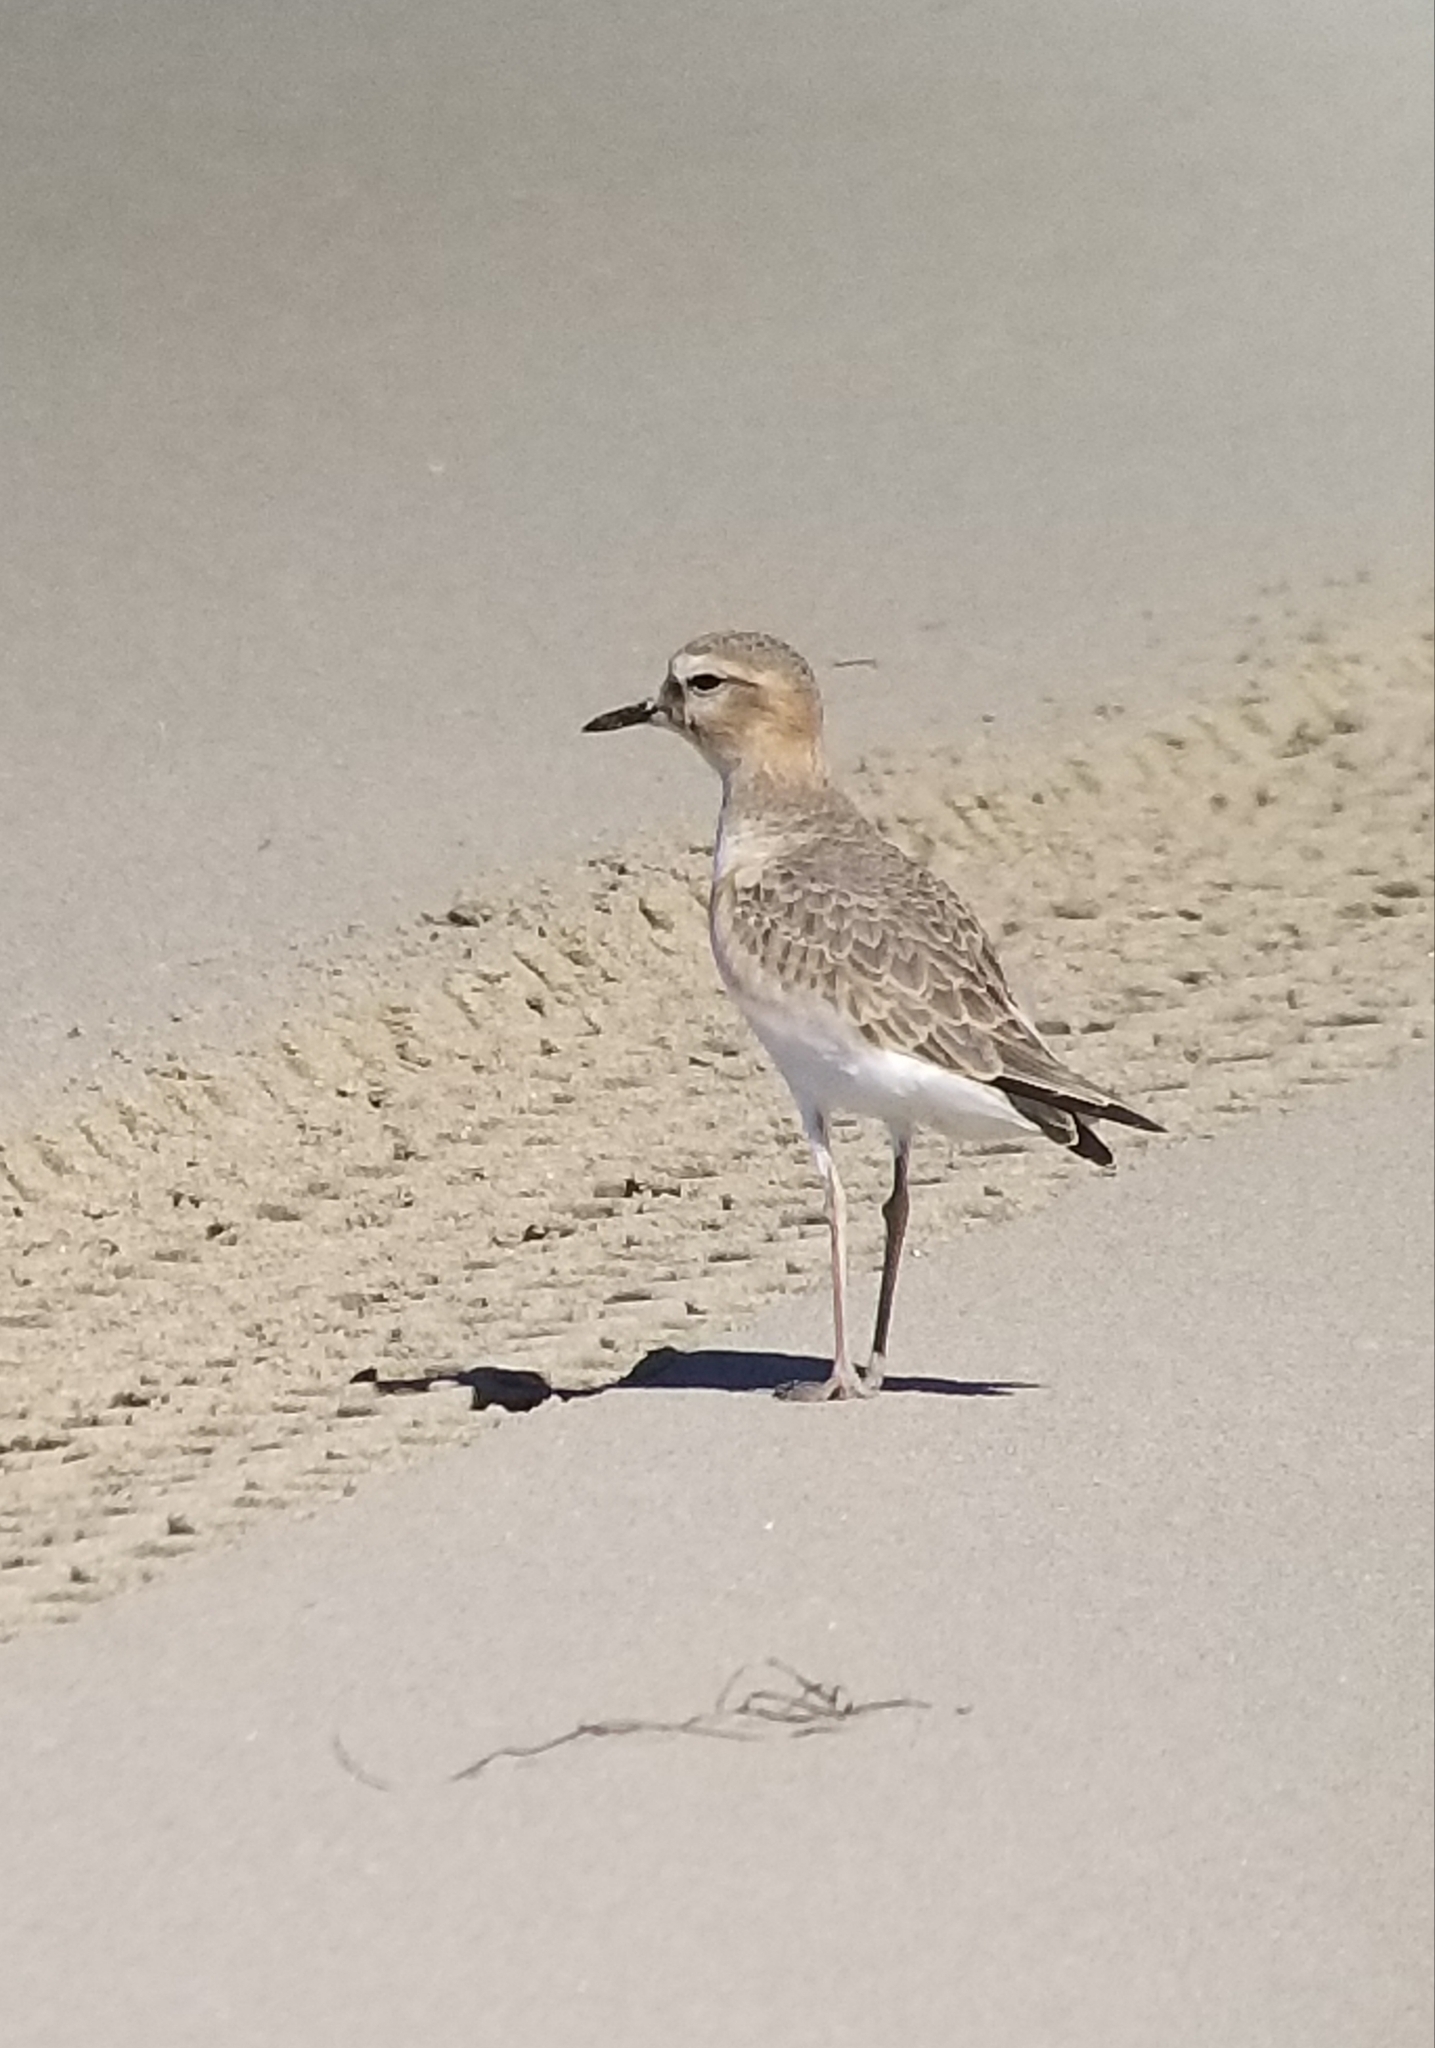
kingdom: Animalia
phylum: Chordata
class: Aves
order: Charadriiformes
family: Charadriidae
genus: Anarhynchus
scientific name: Anarhynchus
